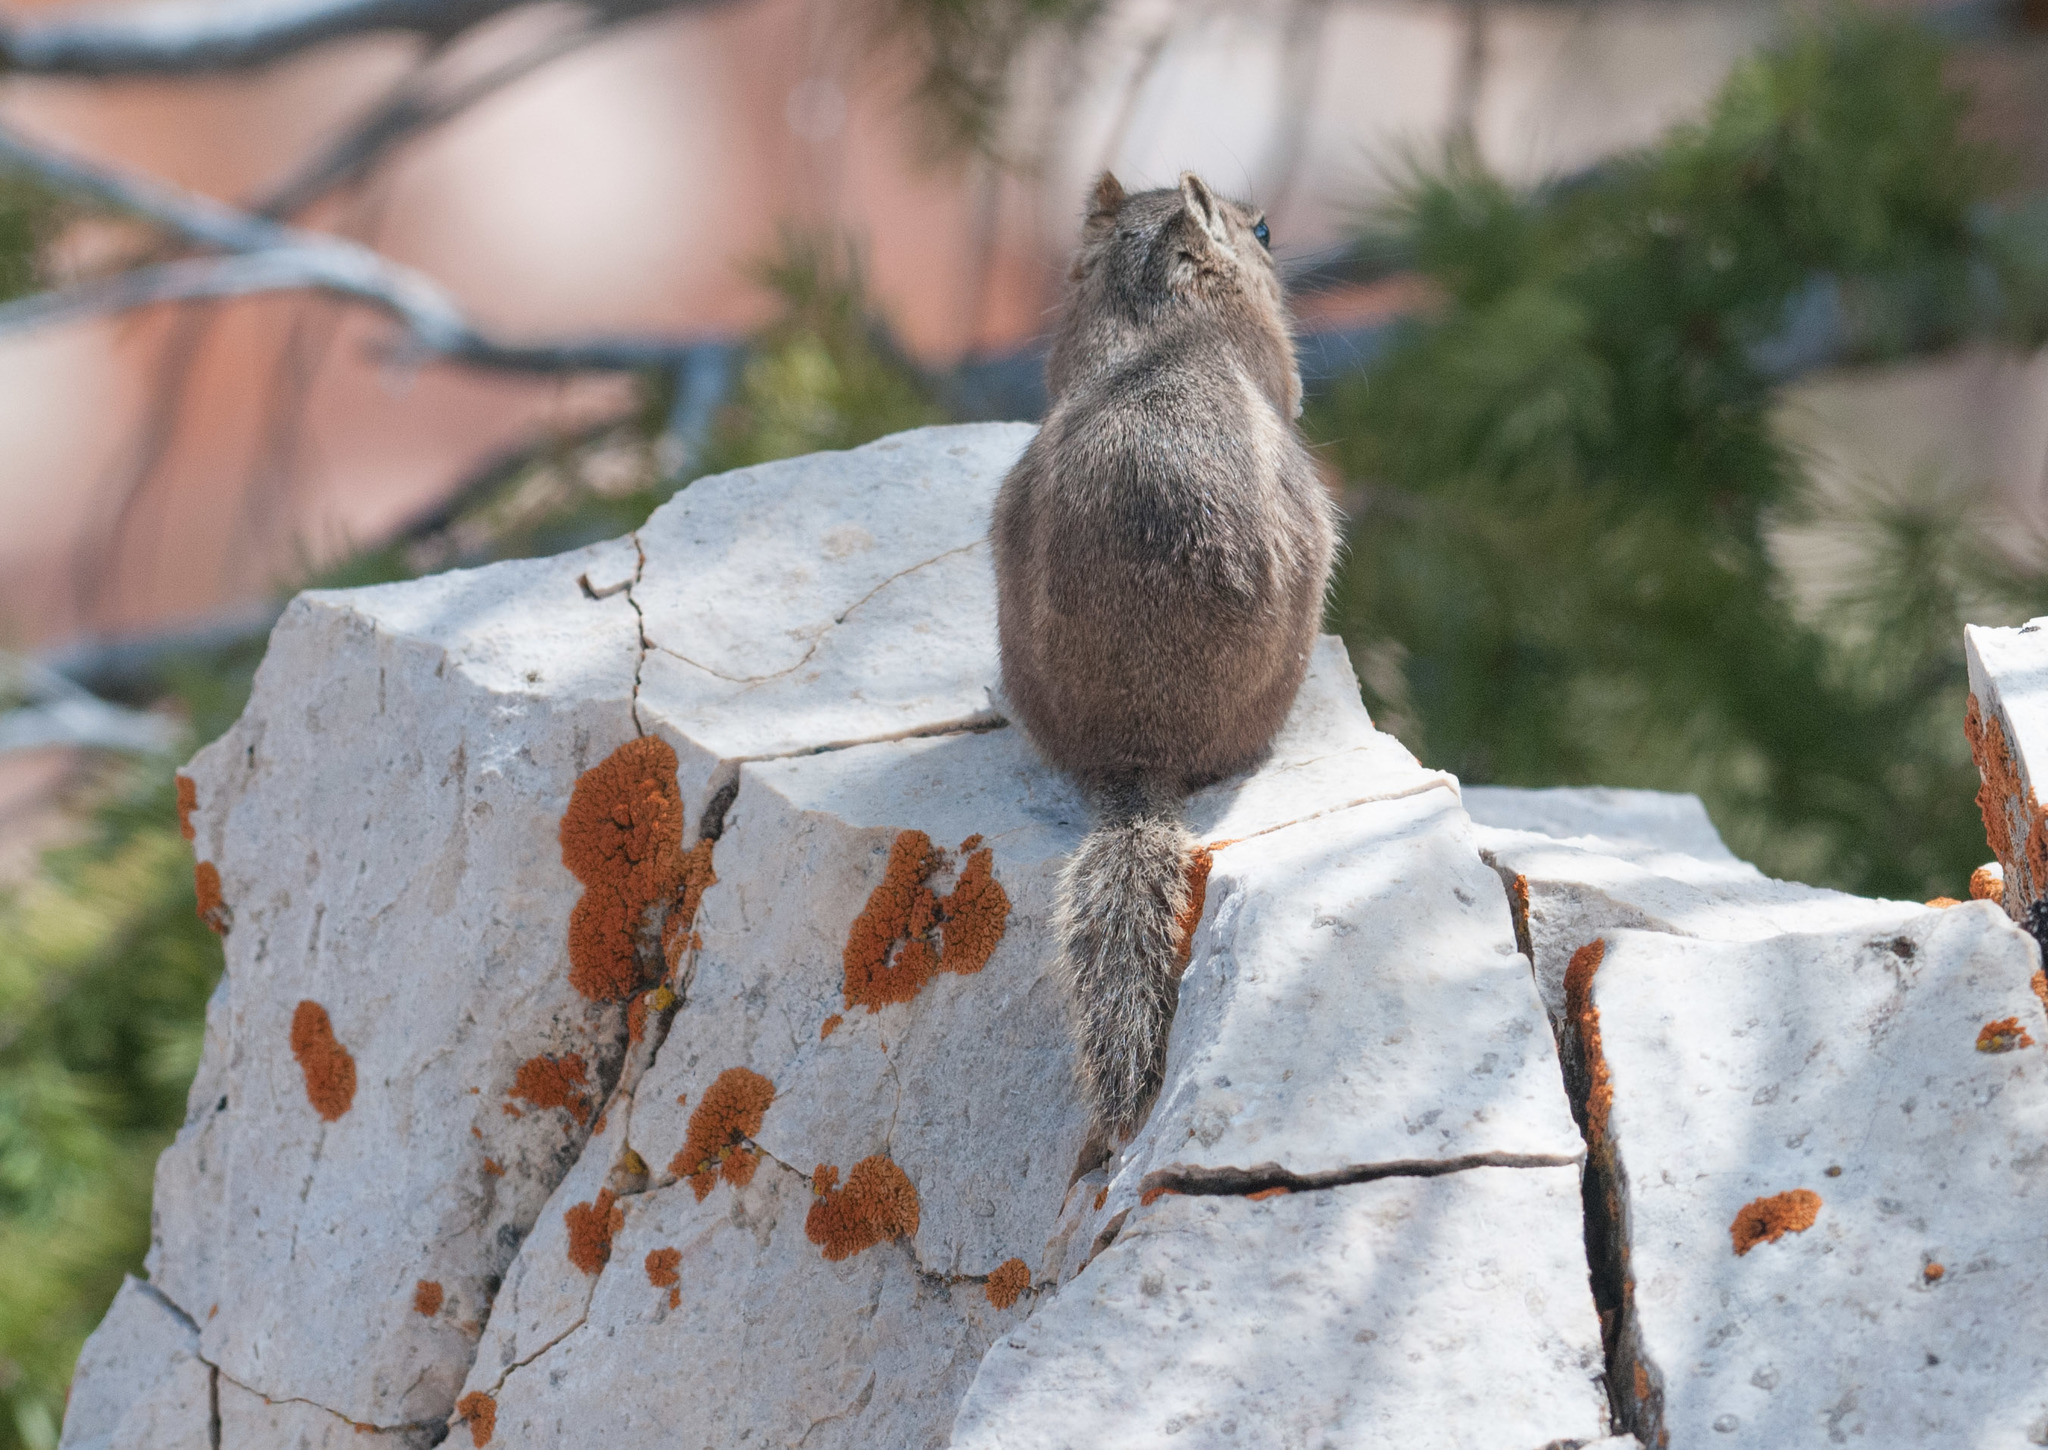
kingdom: Animalia
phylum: Chordata
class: Mammalia
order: Rodentia
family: Sciuridae
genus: Callospermophilus
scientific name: Callospermophilus lateralis
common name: Golden-mantled ground squirrel
